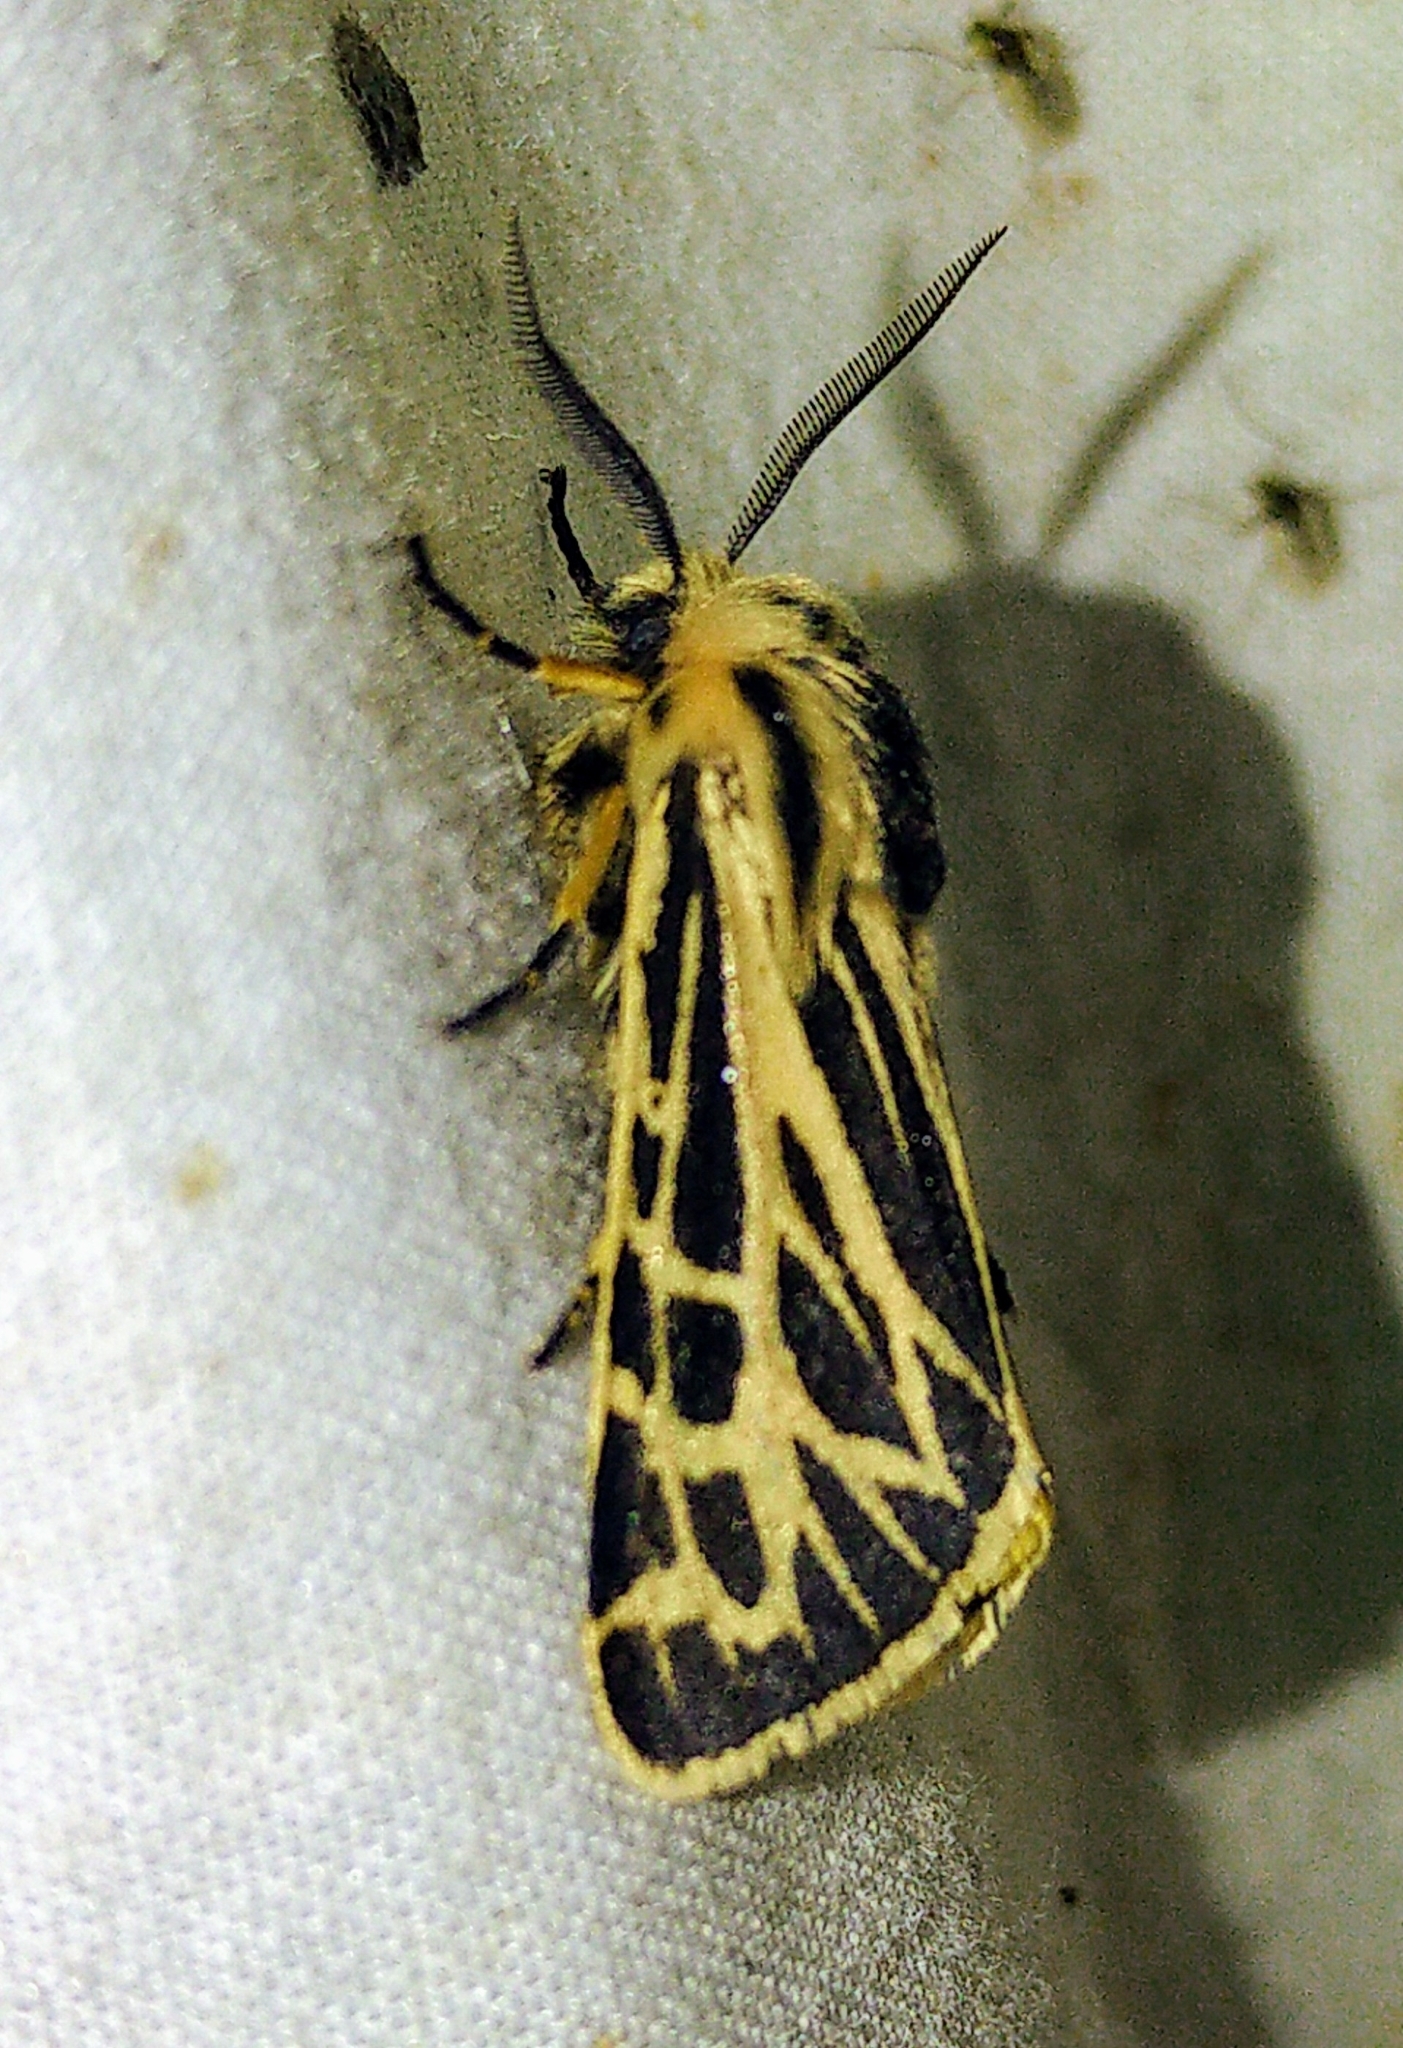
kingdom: Animalia
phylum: Arthropoda
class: Insecta
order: Lepidoptera
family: Erebidae
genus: Apantesis
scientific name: Apantesis obliterata
